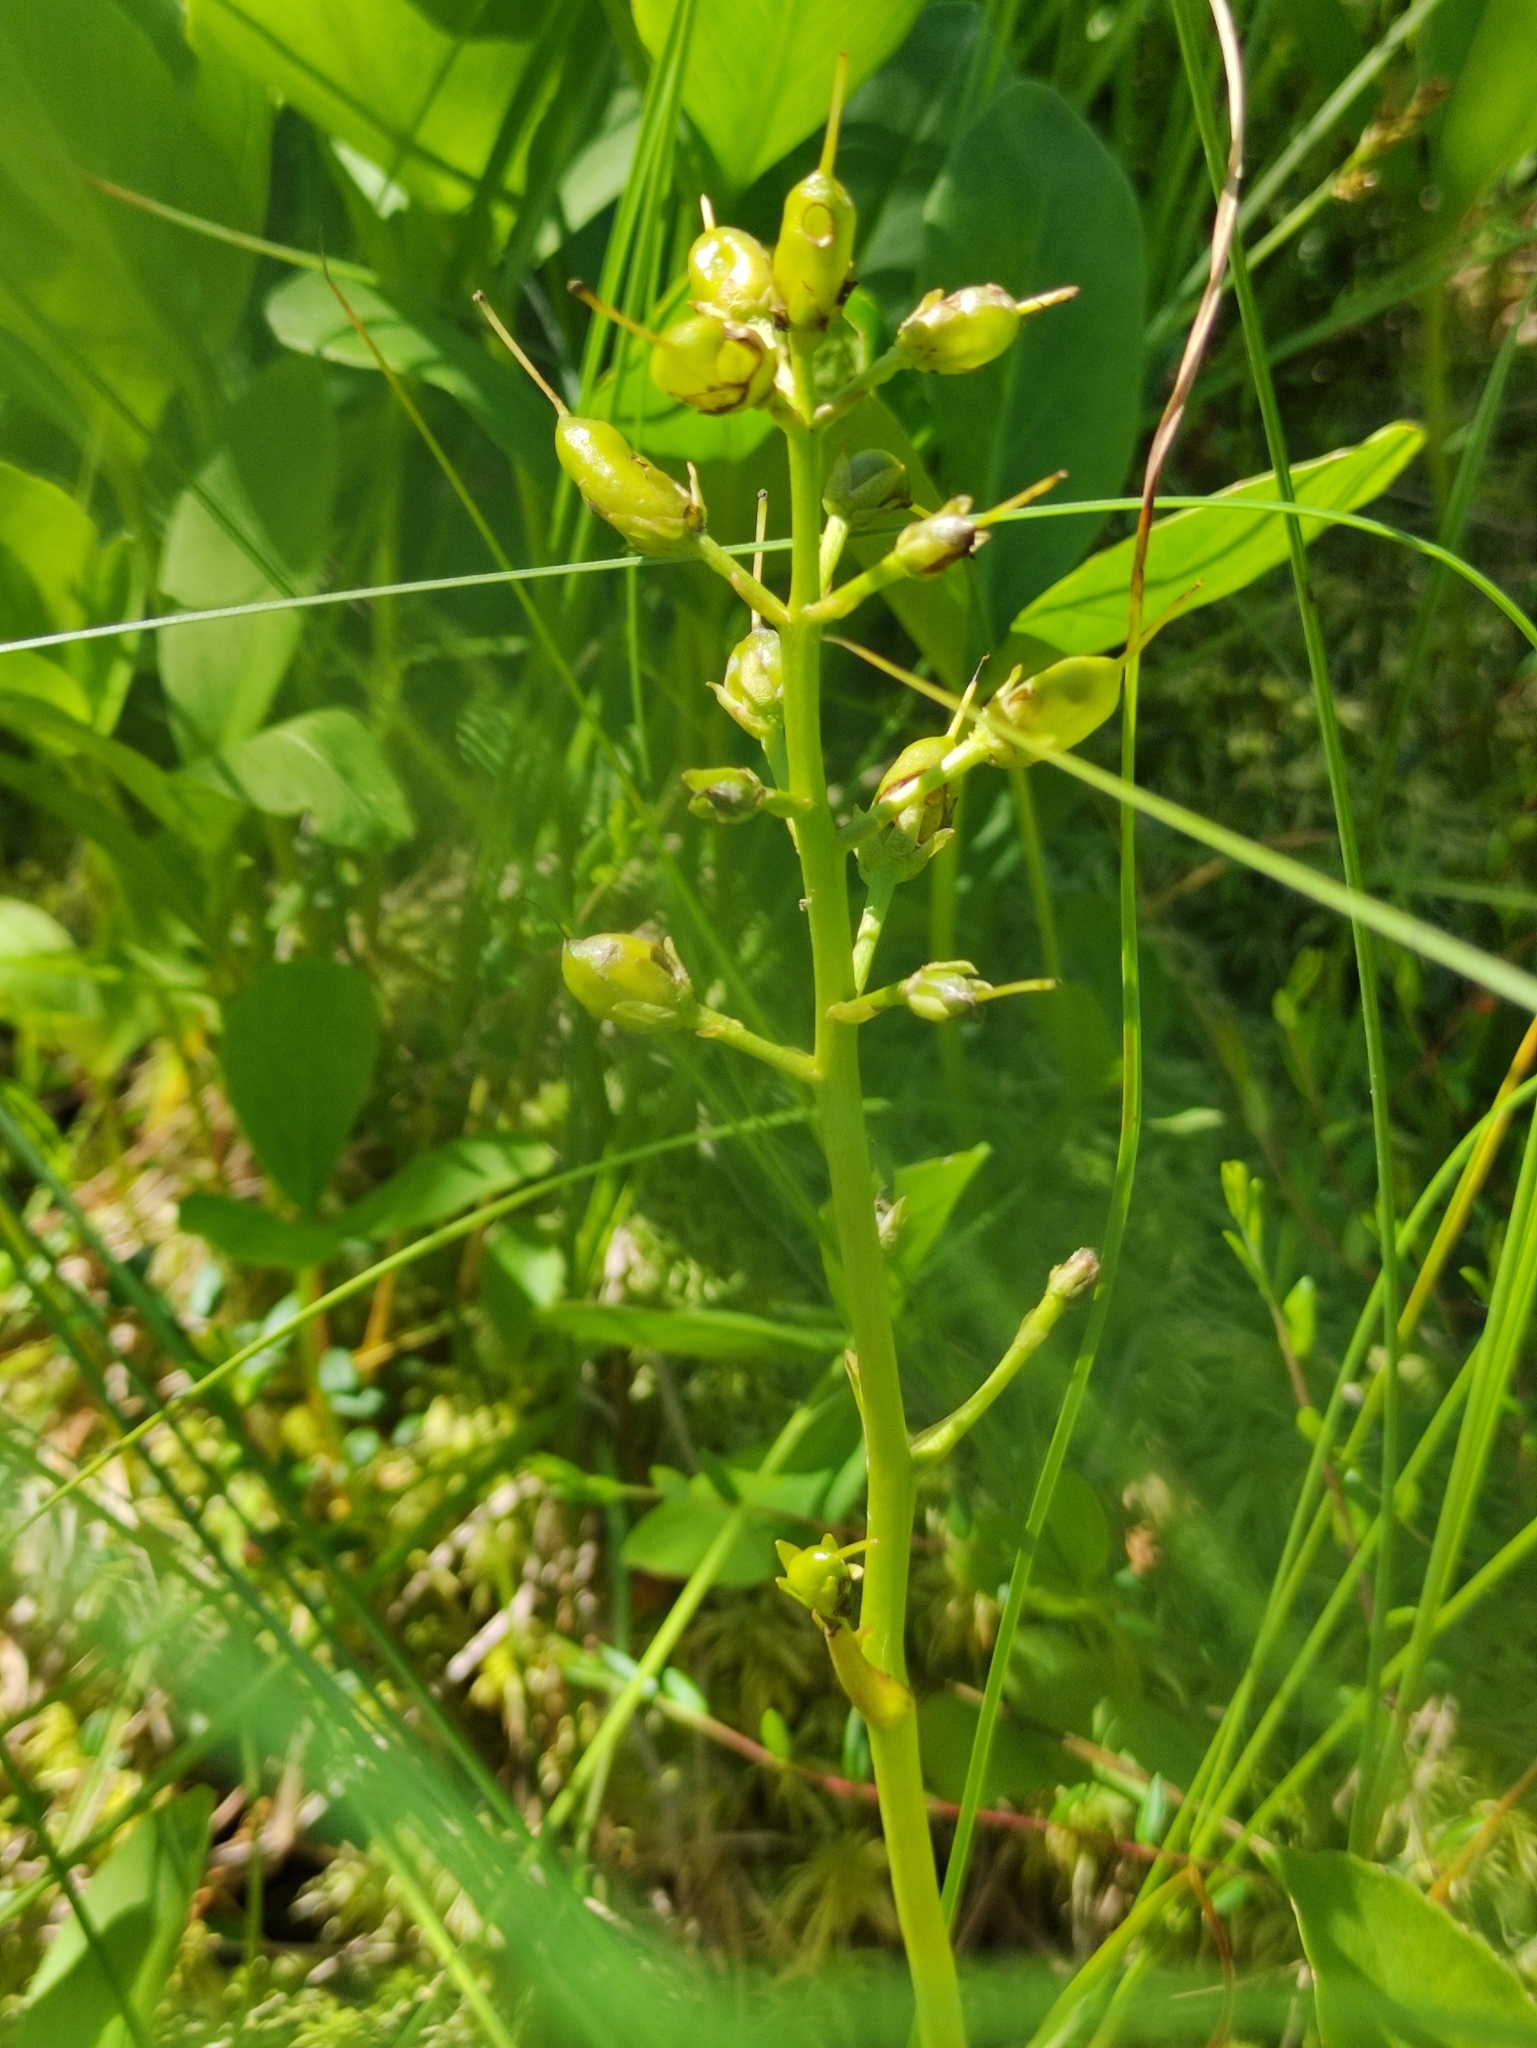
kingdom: Plantae
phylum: Tracheophyta
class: Magnoliopsida
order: Asterales
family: Menyanthaceae
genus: Menyanthes
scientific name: Menyanthes trifoliata
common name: Bogbean
